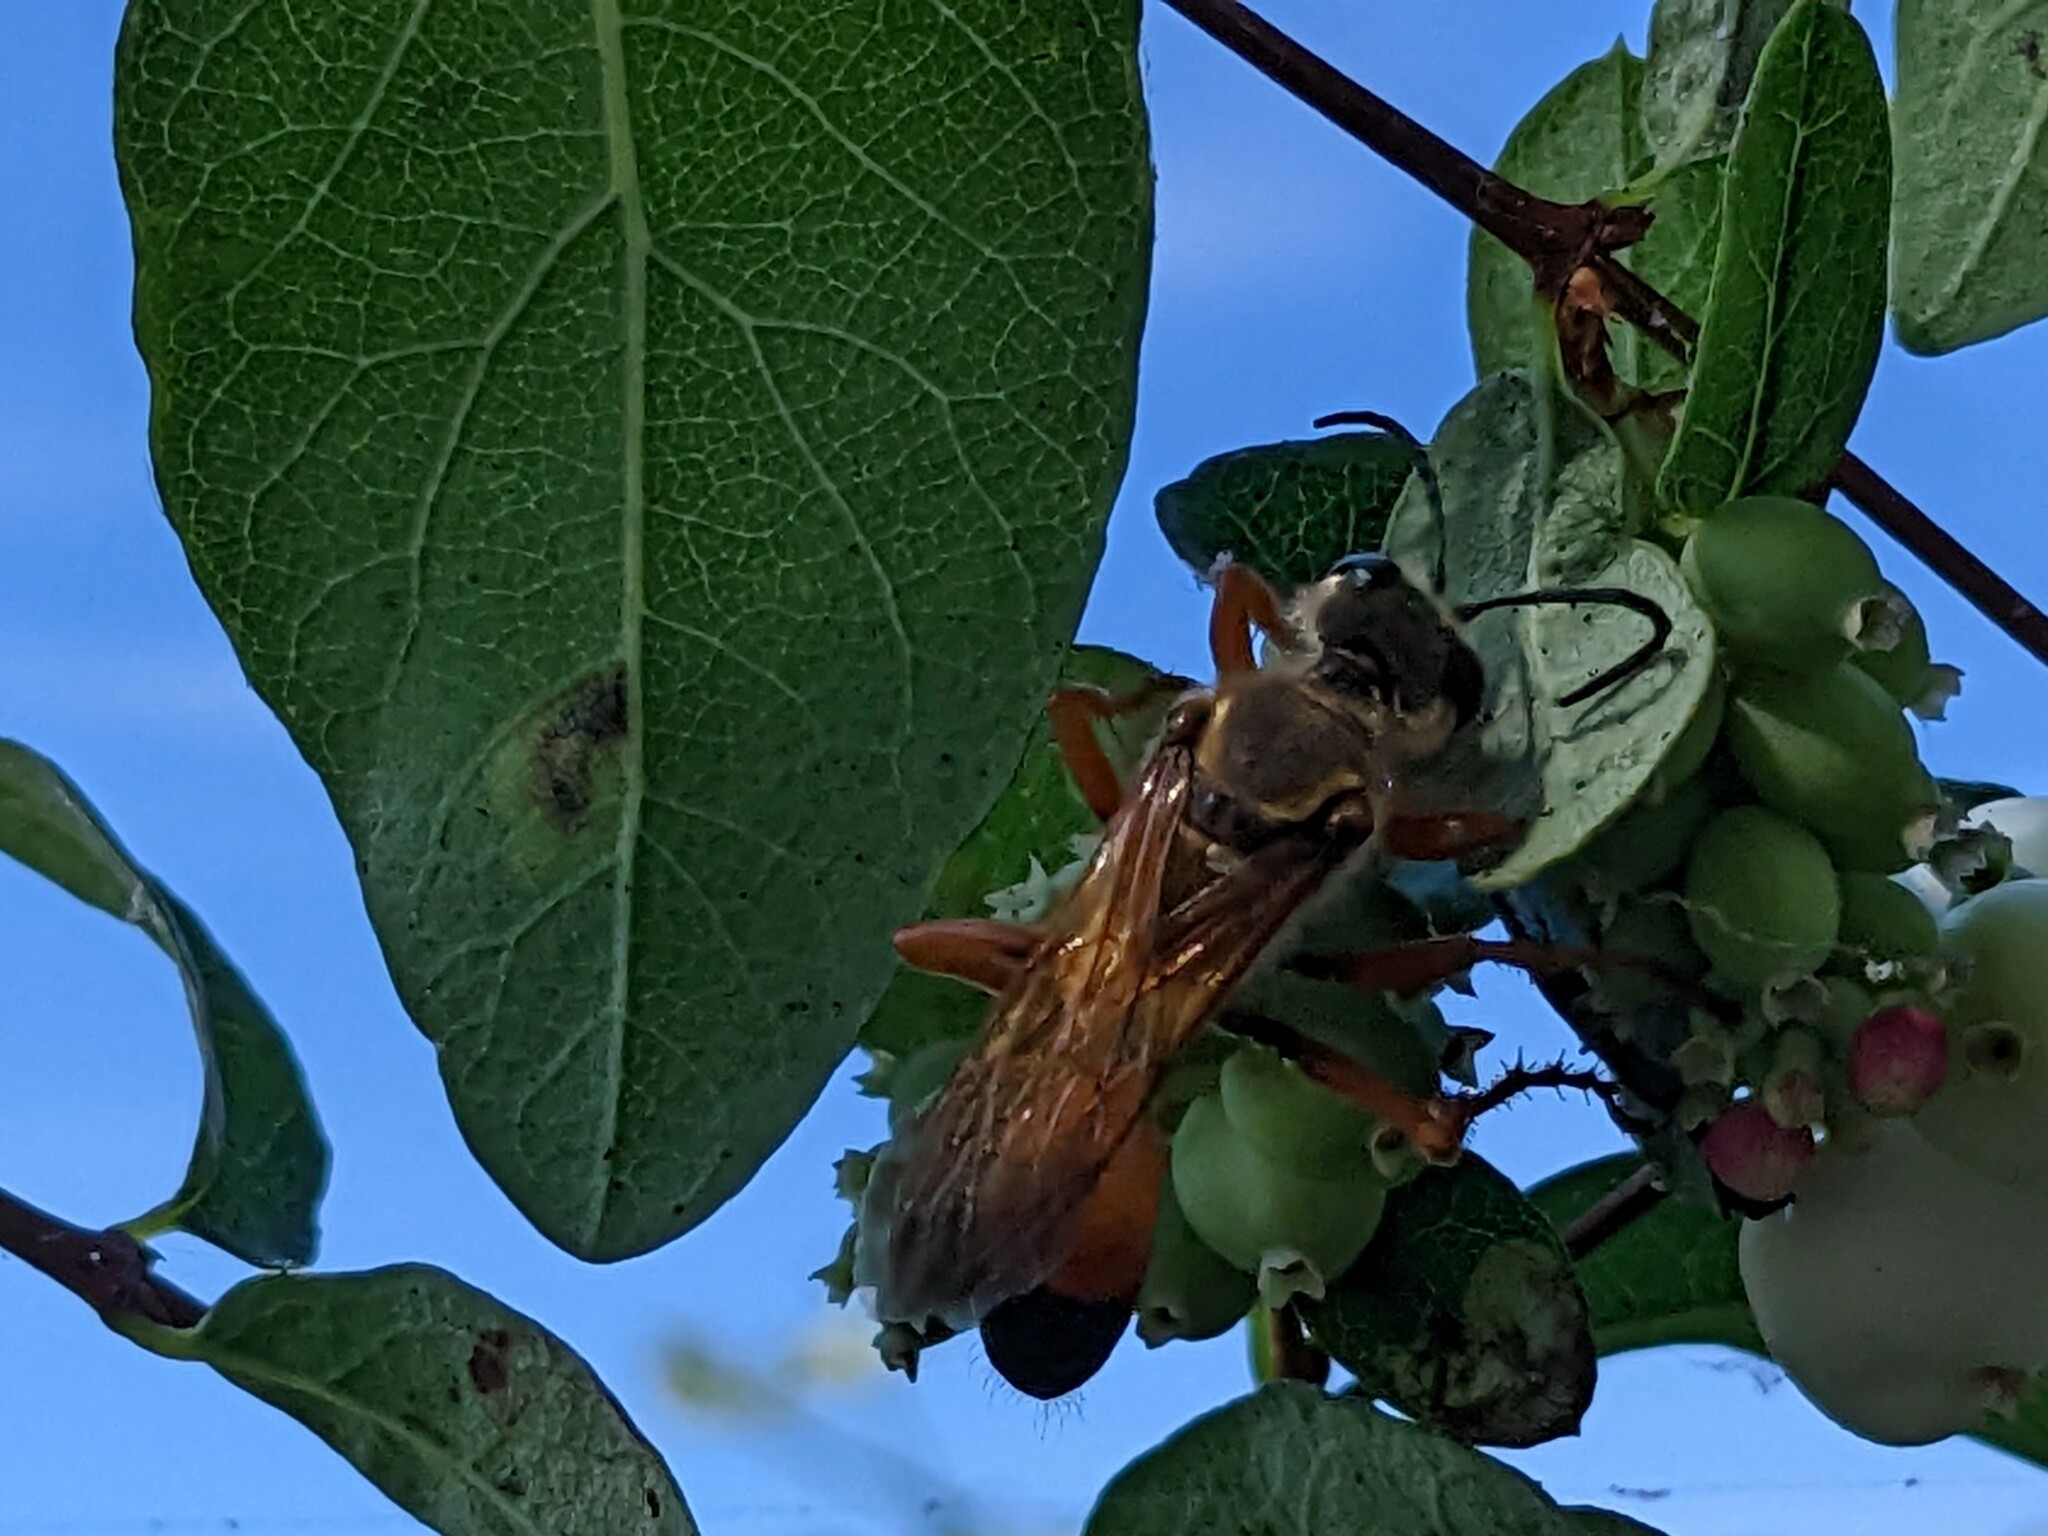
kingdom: Animalia
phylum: Arthropoda
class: Insecta
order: Hymenoptera
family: Sphecidae
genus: Sphex
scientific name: Sphex ichneumoneus
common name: Great golden digger wasp
